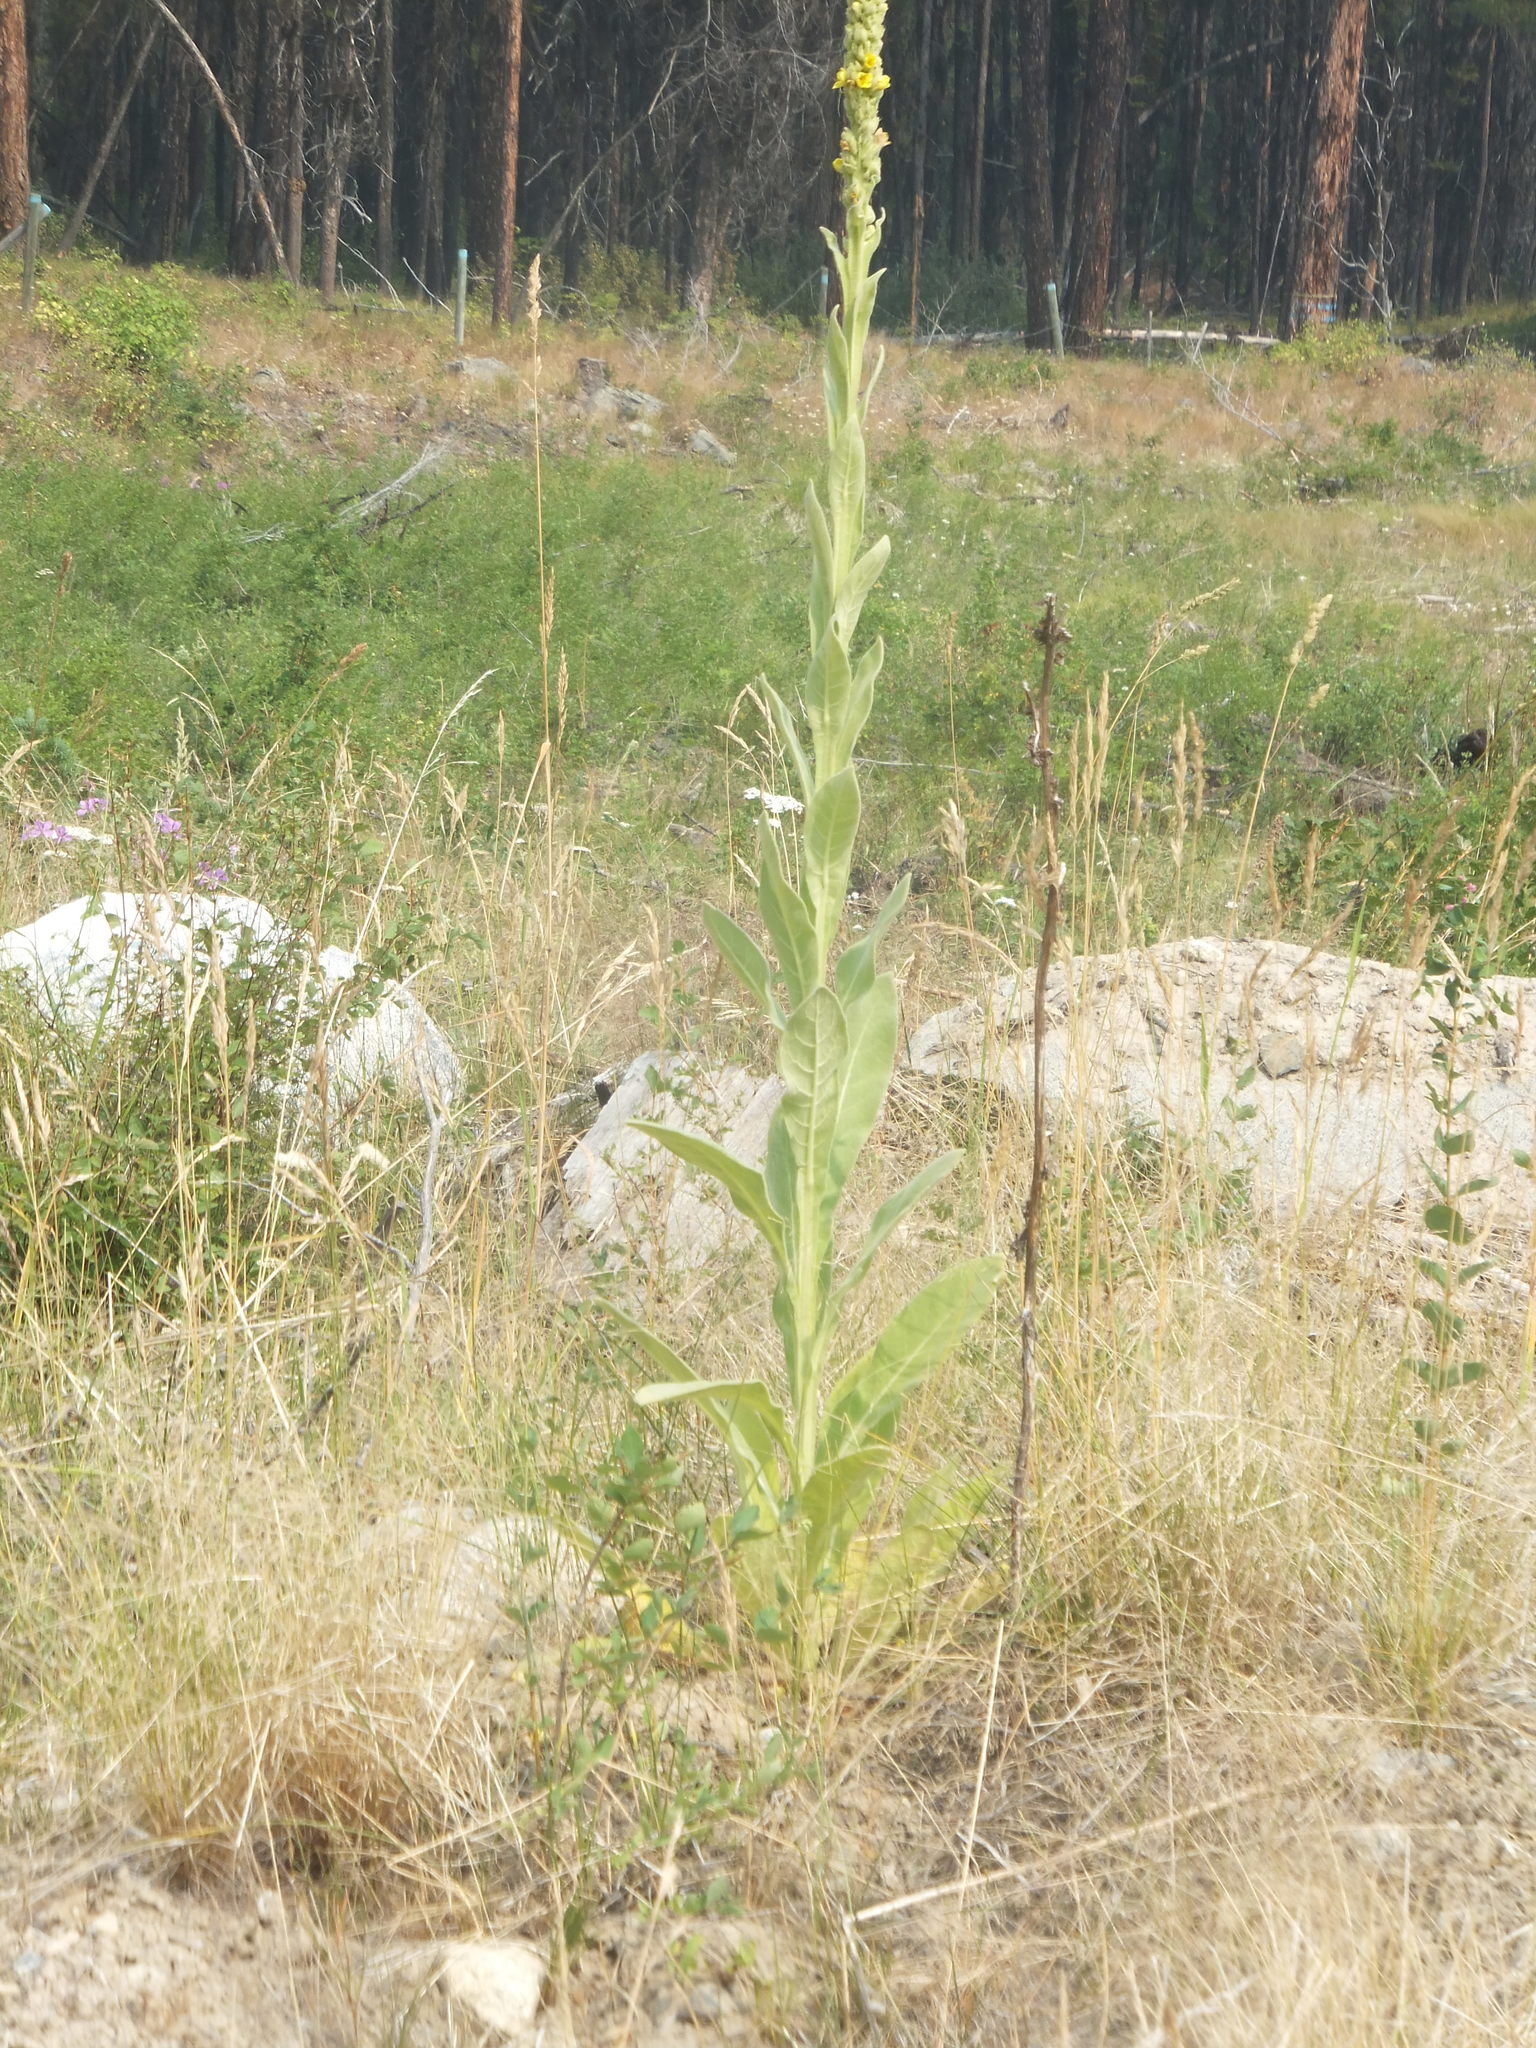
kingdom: Plantae
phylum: Tracheophyta
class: Magnoliopsida
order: Lamiales
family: Scrophulariaceae
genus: Verbascum
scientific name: Verbascum thapsus
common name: Common mullein
